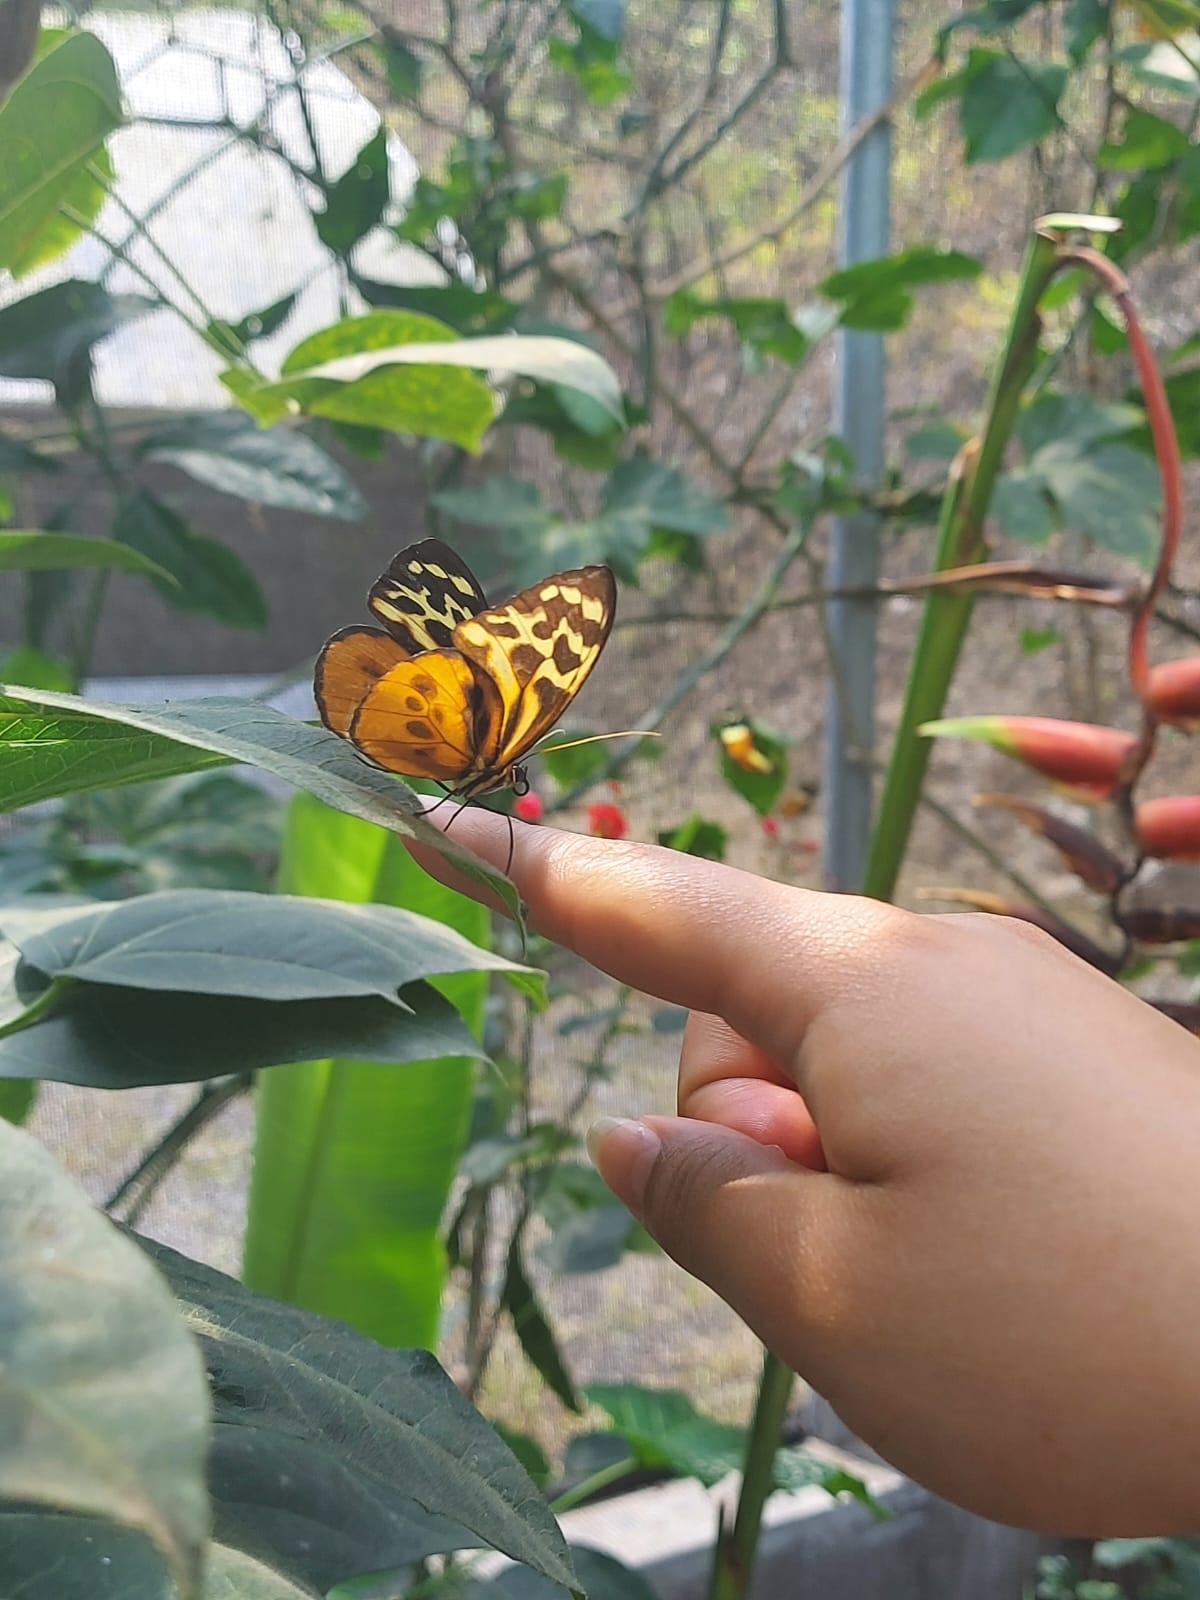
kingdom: Animalia
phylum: Arthropoda
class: Insecta
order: Lepidoptera
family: Nymphalidae
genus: Tithorea
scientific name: Tithorea harmonia
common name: Harmonia tigerwing
